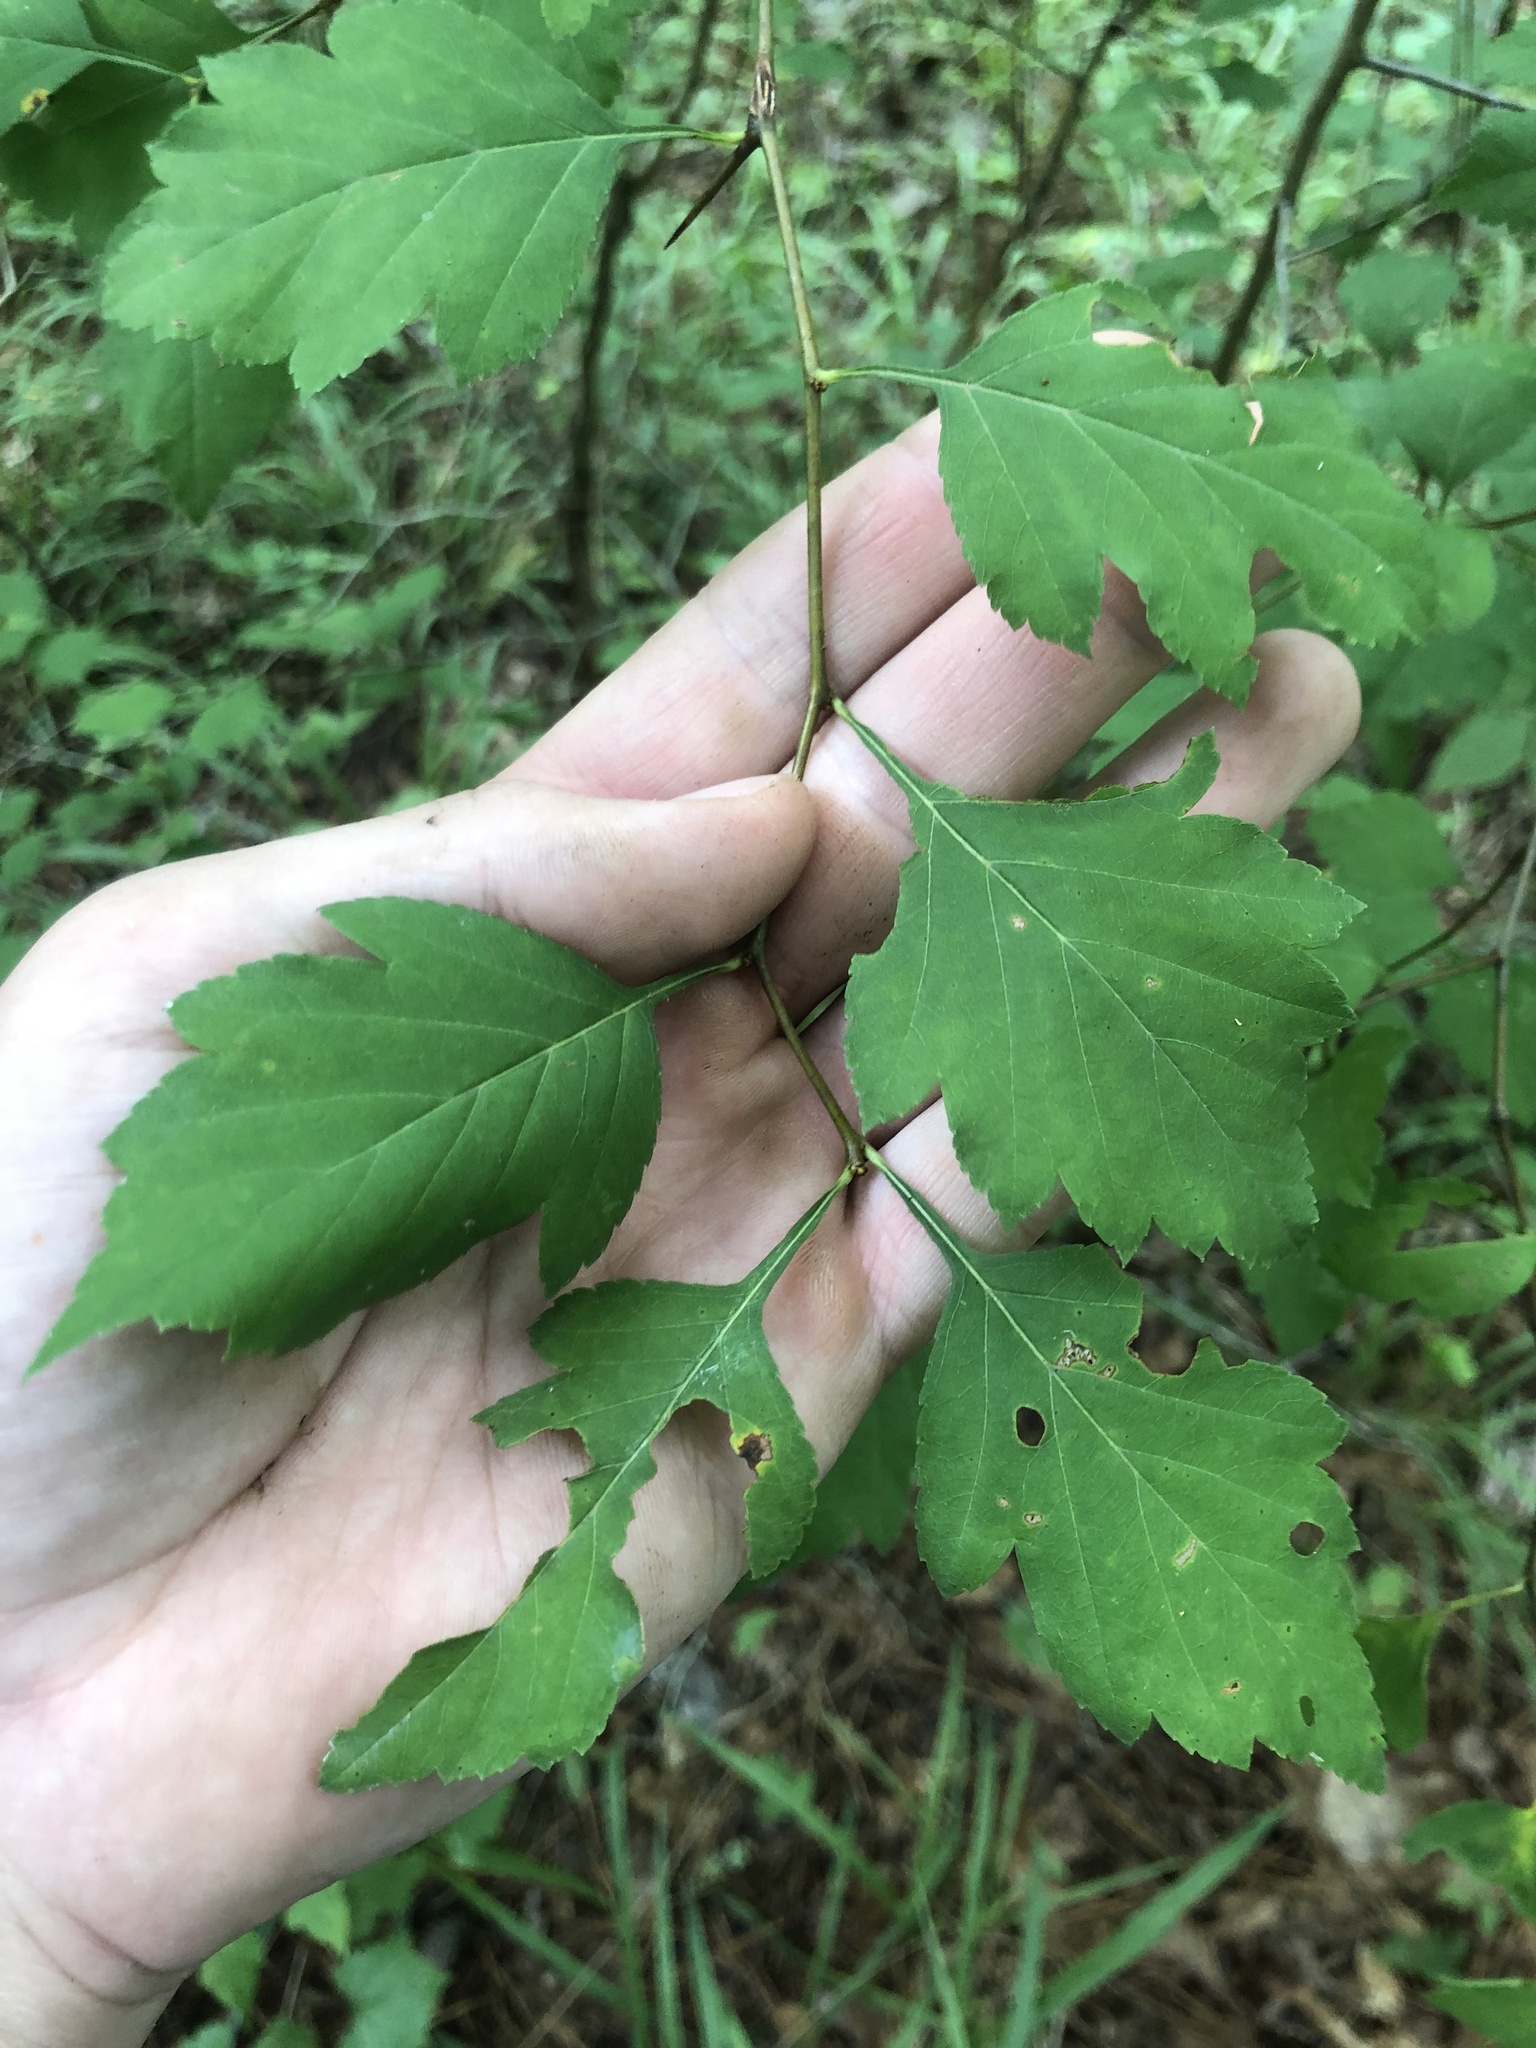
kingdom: Plantae
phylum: Tracheophyta
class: Magnoliopsida
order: Rosales
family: Rosaceae
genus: Crataegus
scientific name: Crataegus pulcherrima
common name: Beautiful hawthorn
